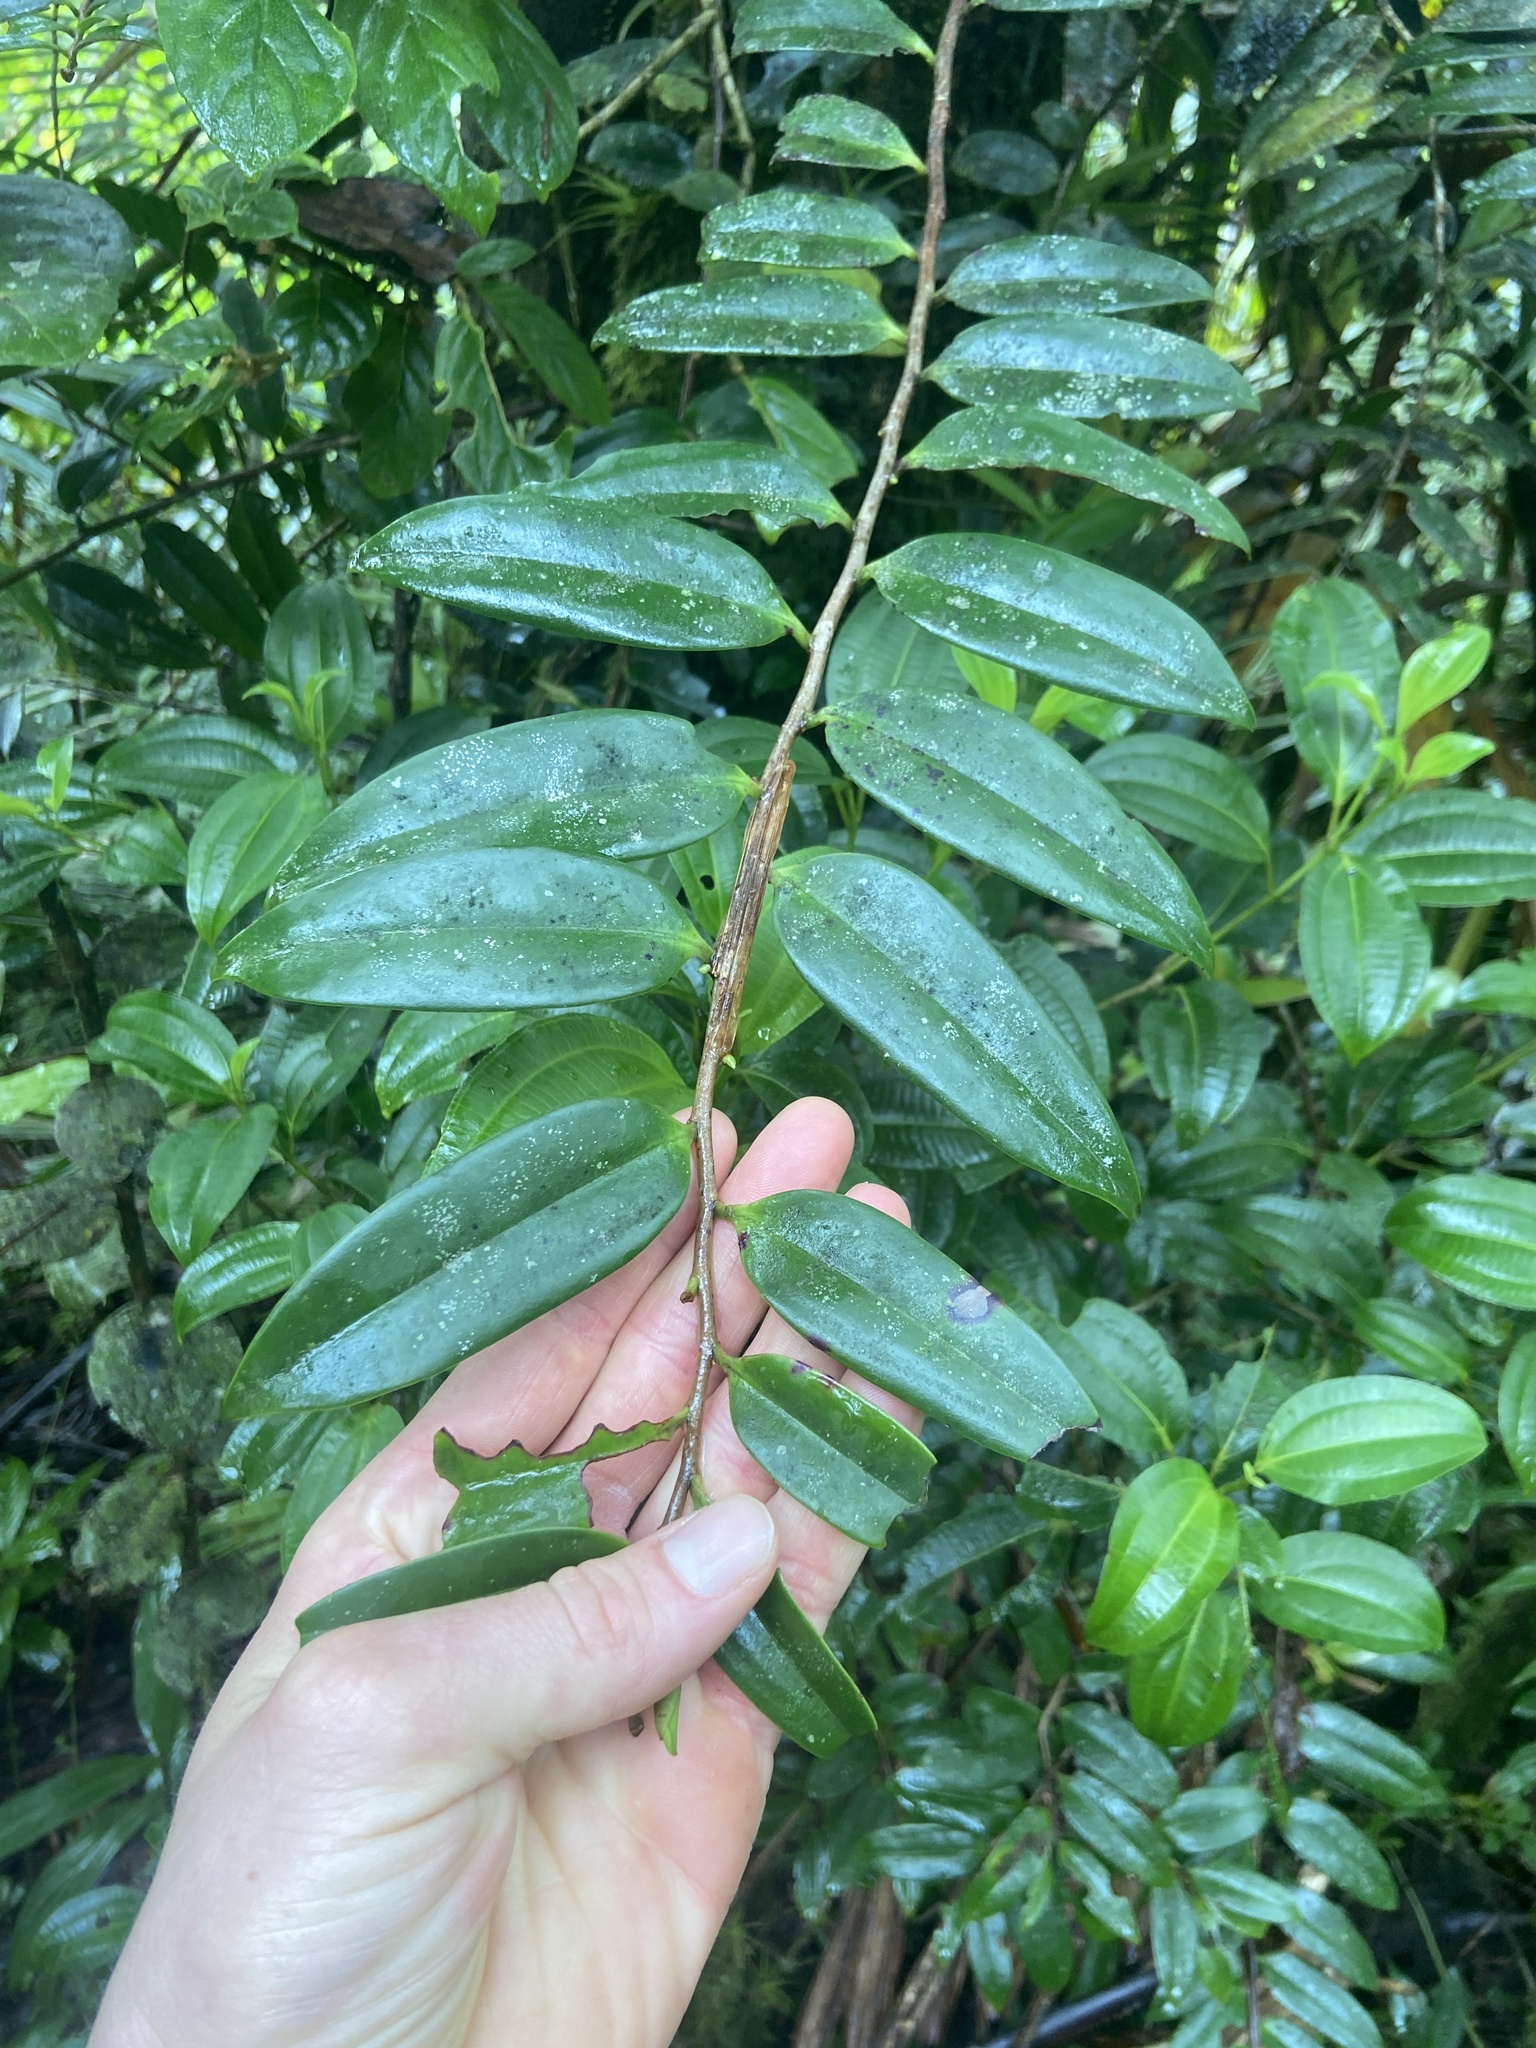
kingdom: Plantae
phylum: Tracheophyta
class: Magnoliopsida
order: Ericales
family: Marcgraviaceae
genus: Marcgravia
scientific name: Marcgravia rectiflora
